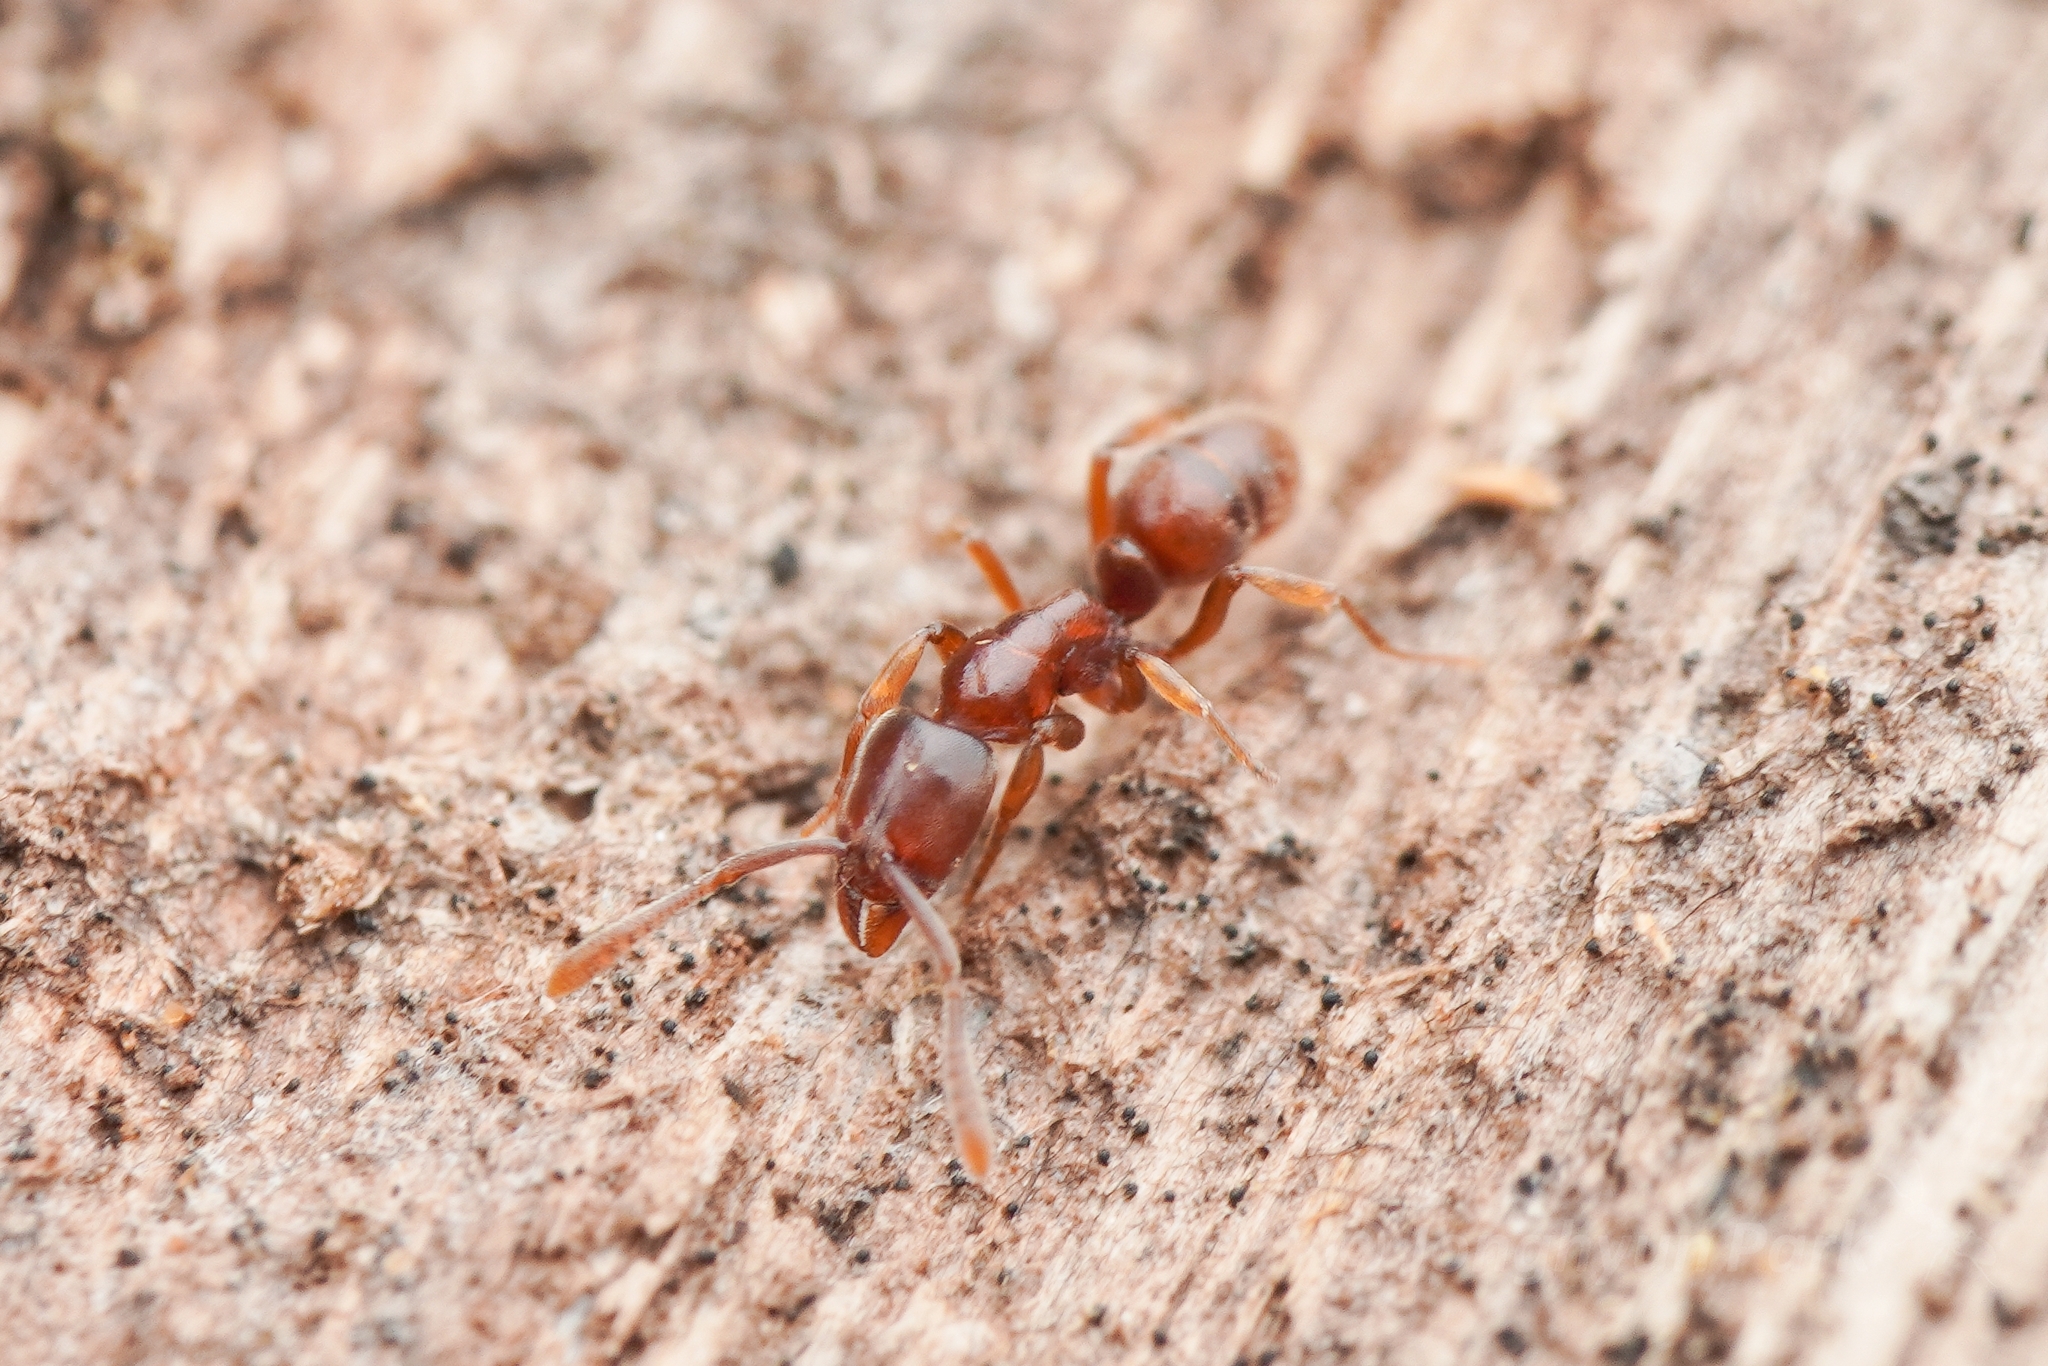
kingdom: Animalia
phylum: Arthropoda
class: Insecta
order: Hymenoptera
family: Formicidae
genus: Hypoponera
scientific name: Hypoponera beppin
